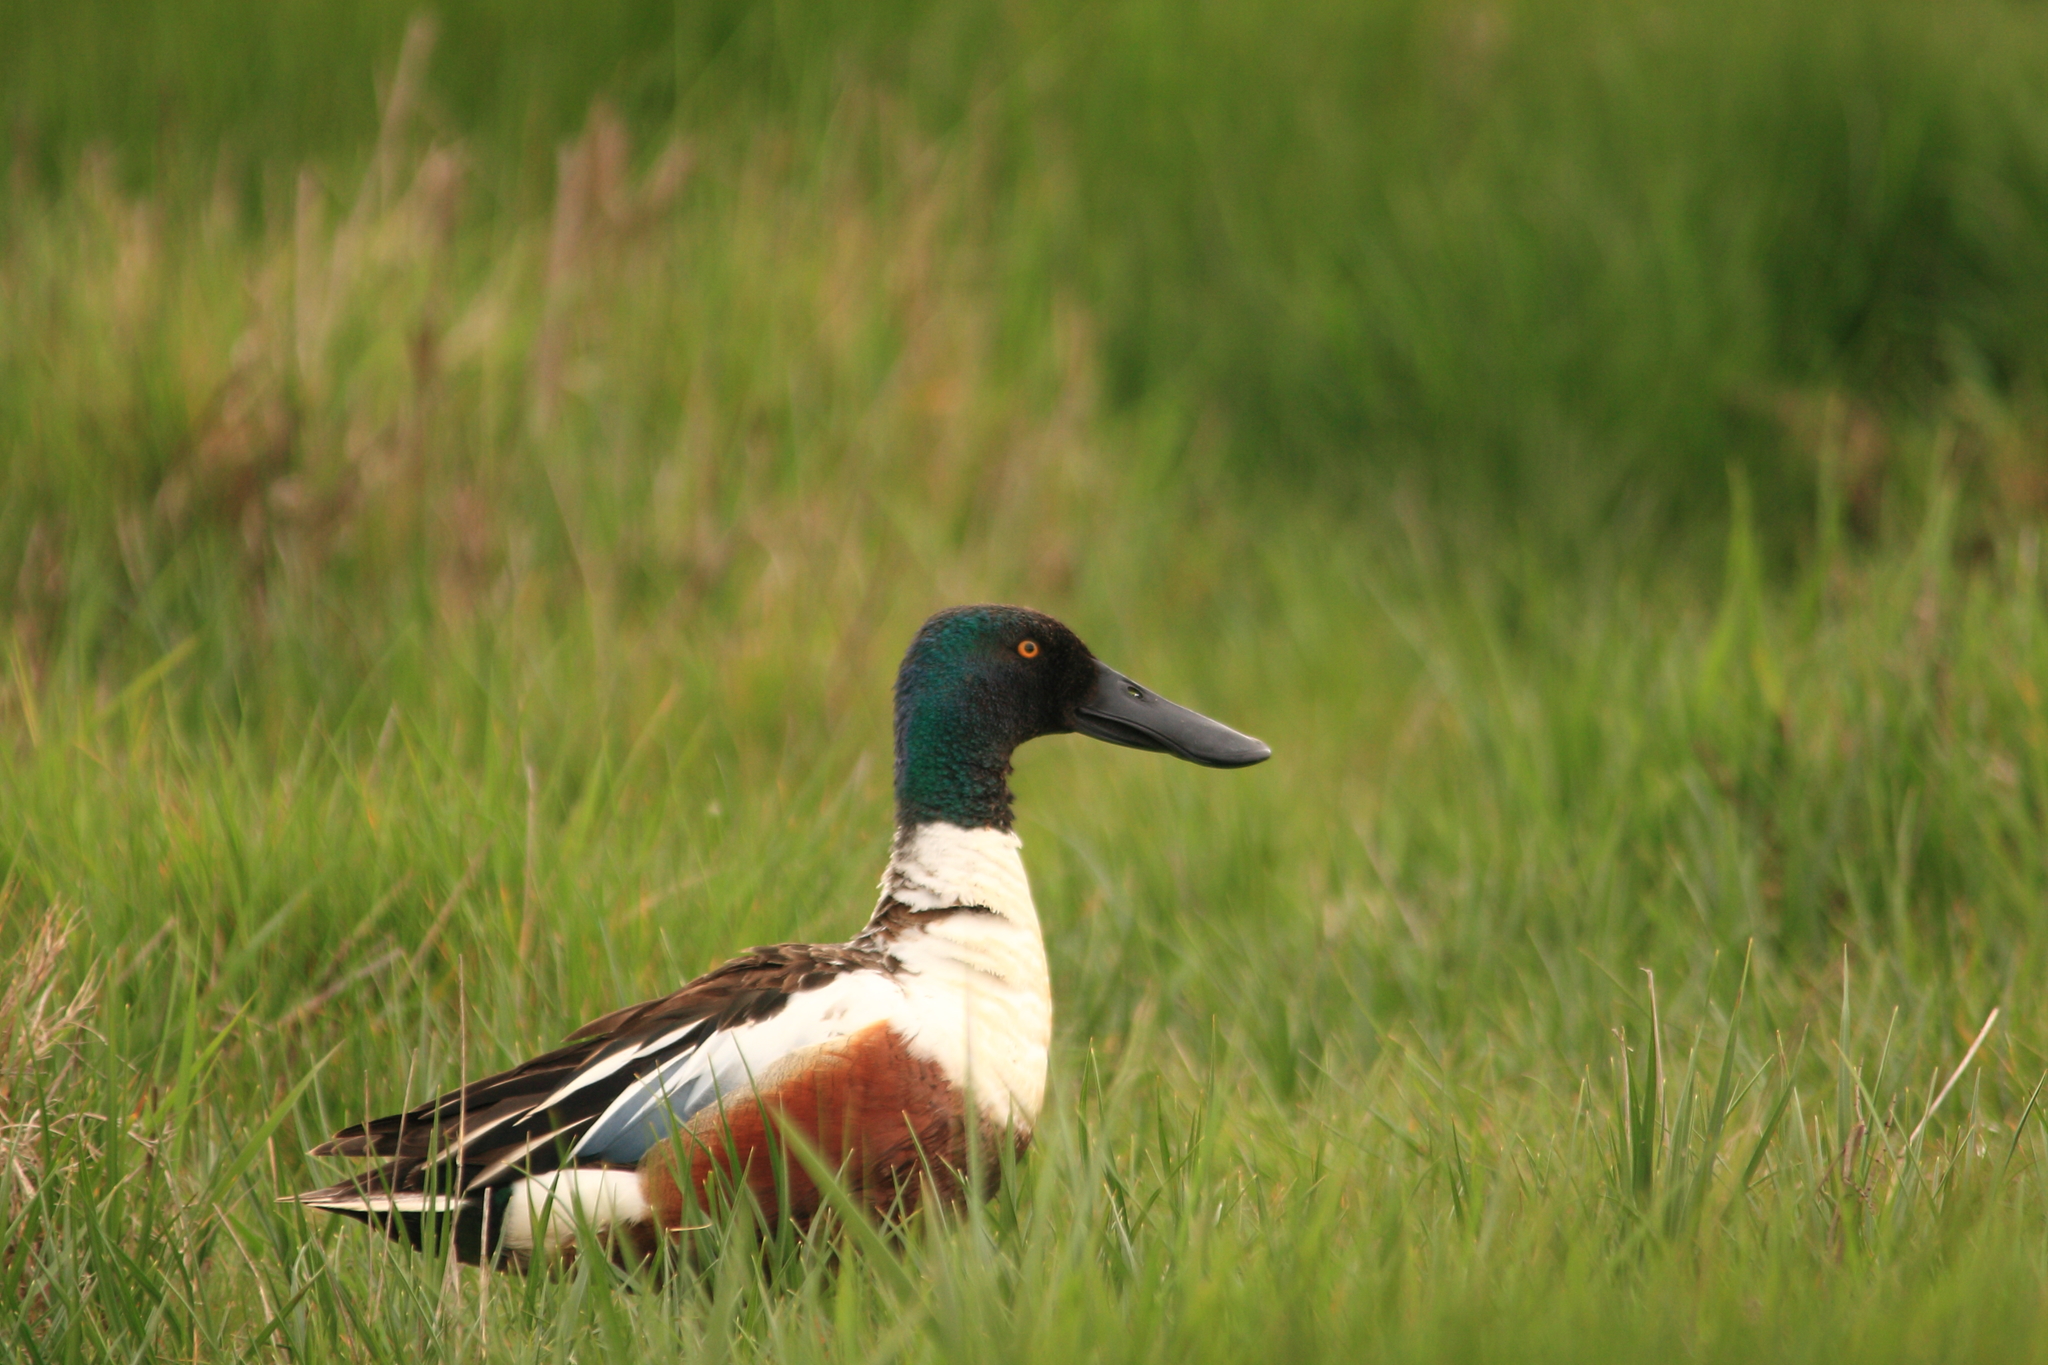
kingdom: Animalia
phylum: Chordata
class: Aves
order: Anseriformes
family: Anatidae
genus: Spatula
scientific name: Spatula clypeata
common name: Northern shoveler
